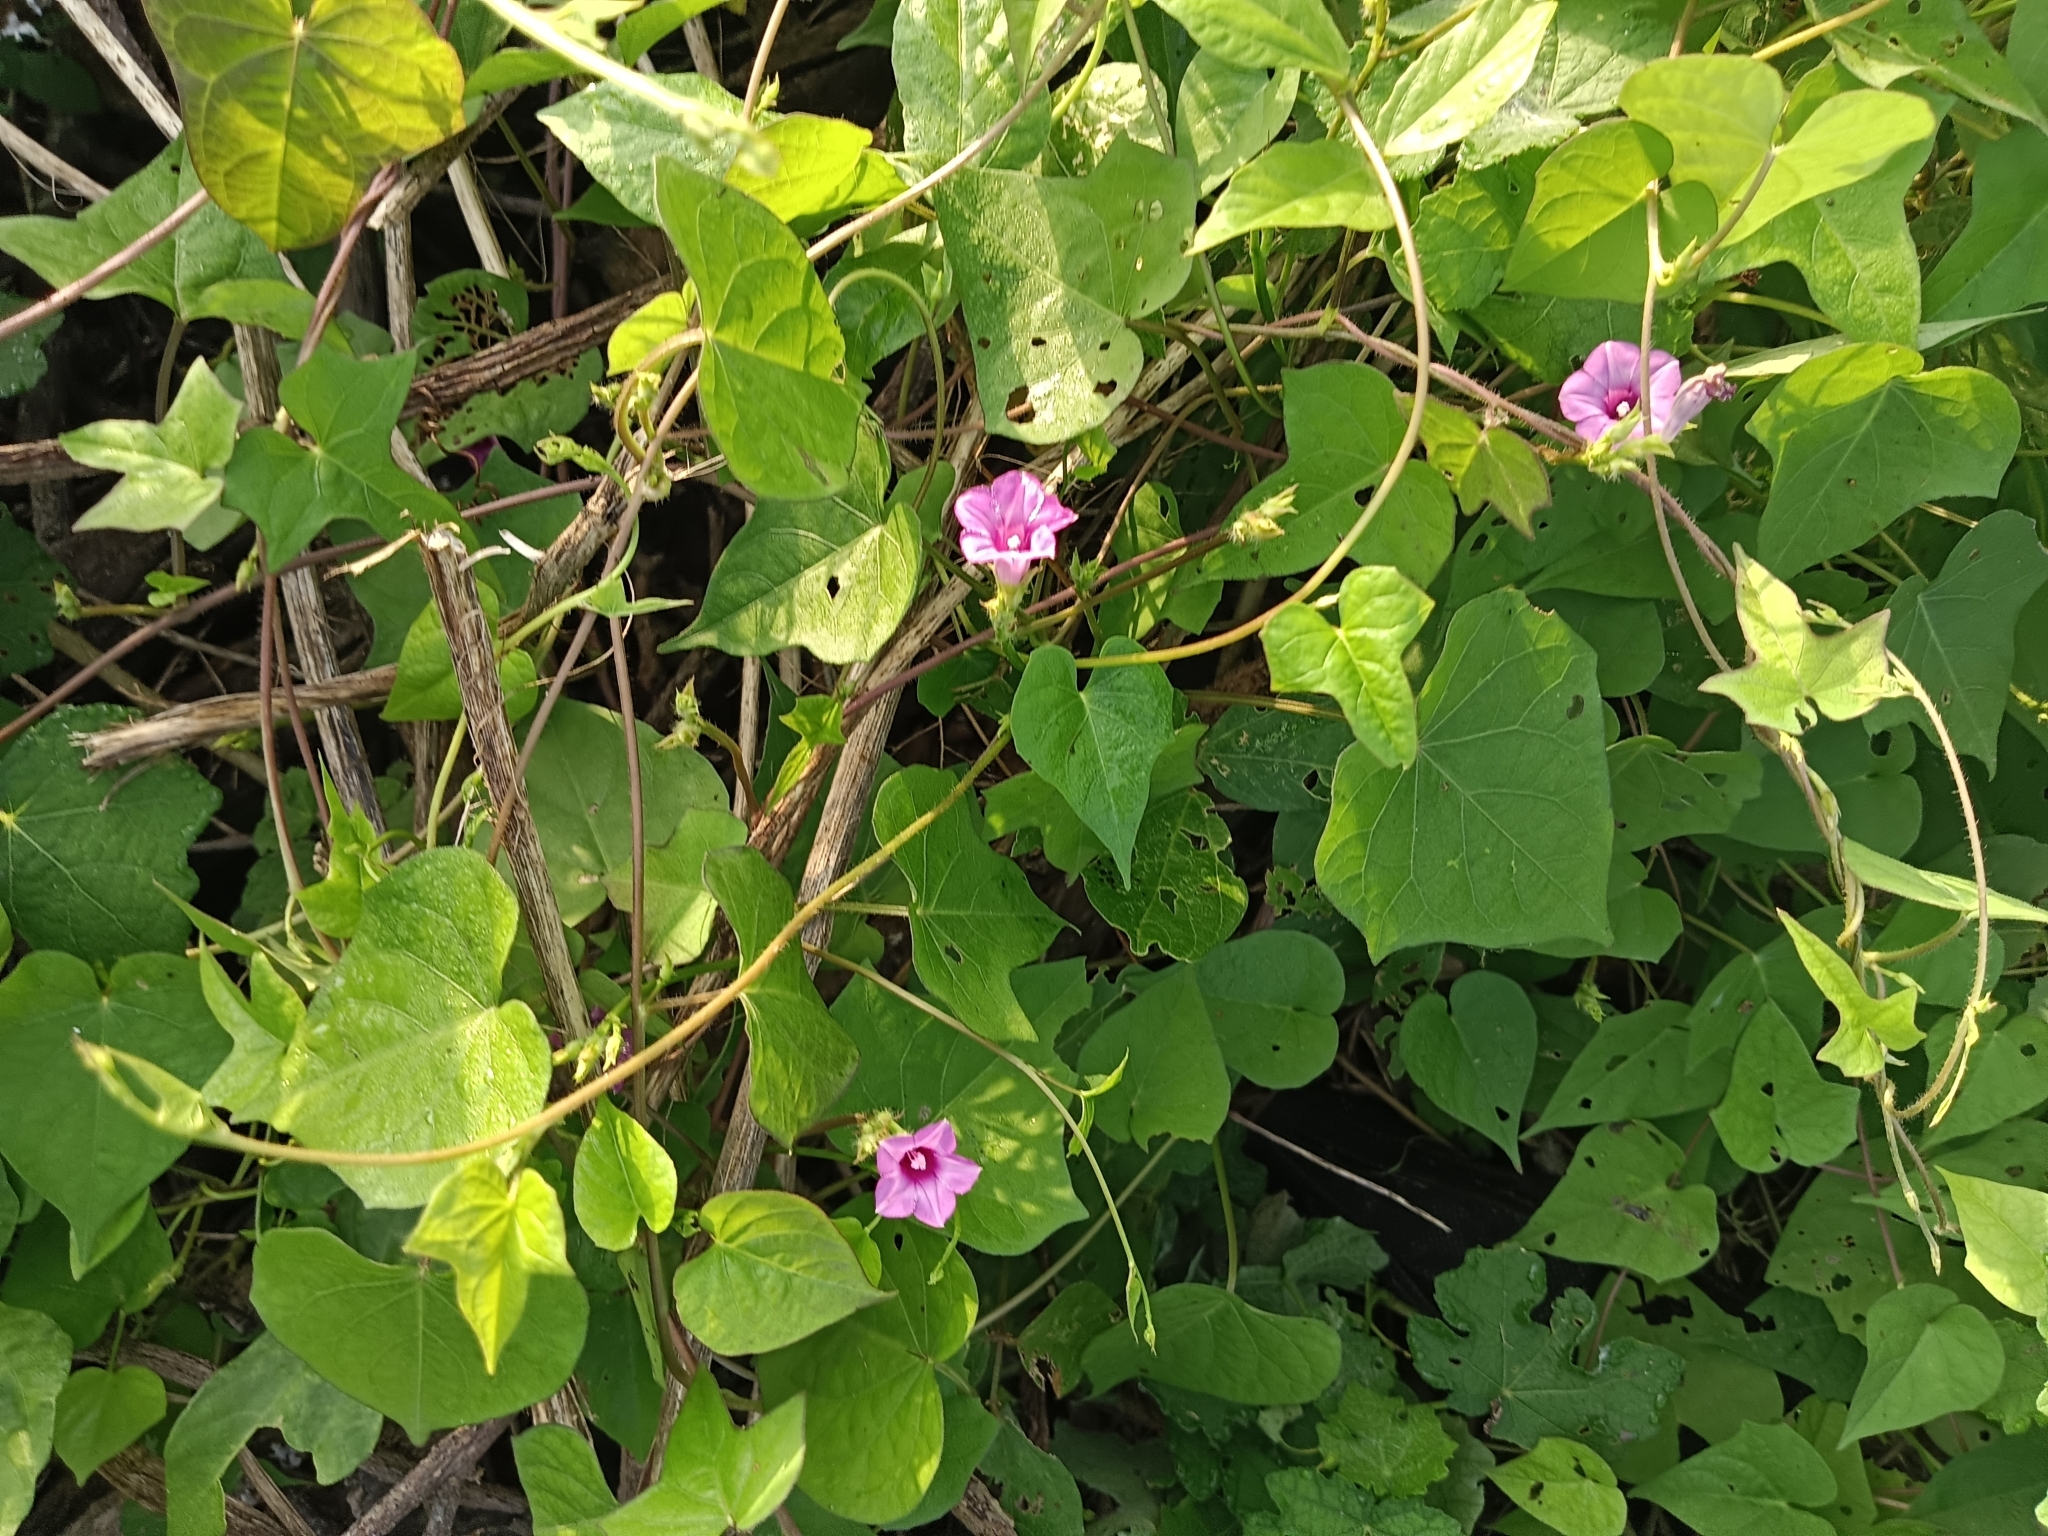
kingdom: Plantae
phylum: Tracheophyta
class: Magnoliopsida
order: Solanales
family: Convolvulaceae
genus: Ipomoea
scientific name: Ipomoea triloba
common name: Little-bell
